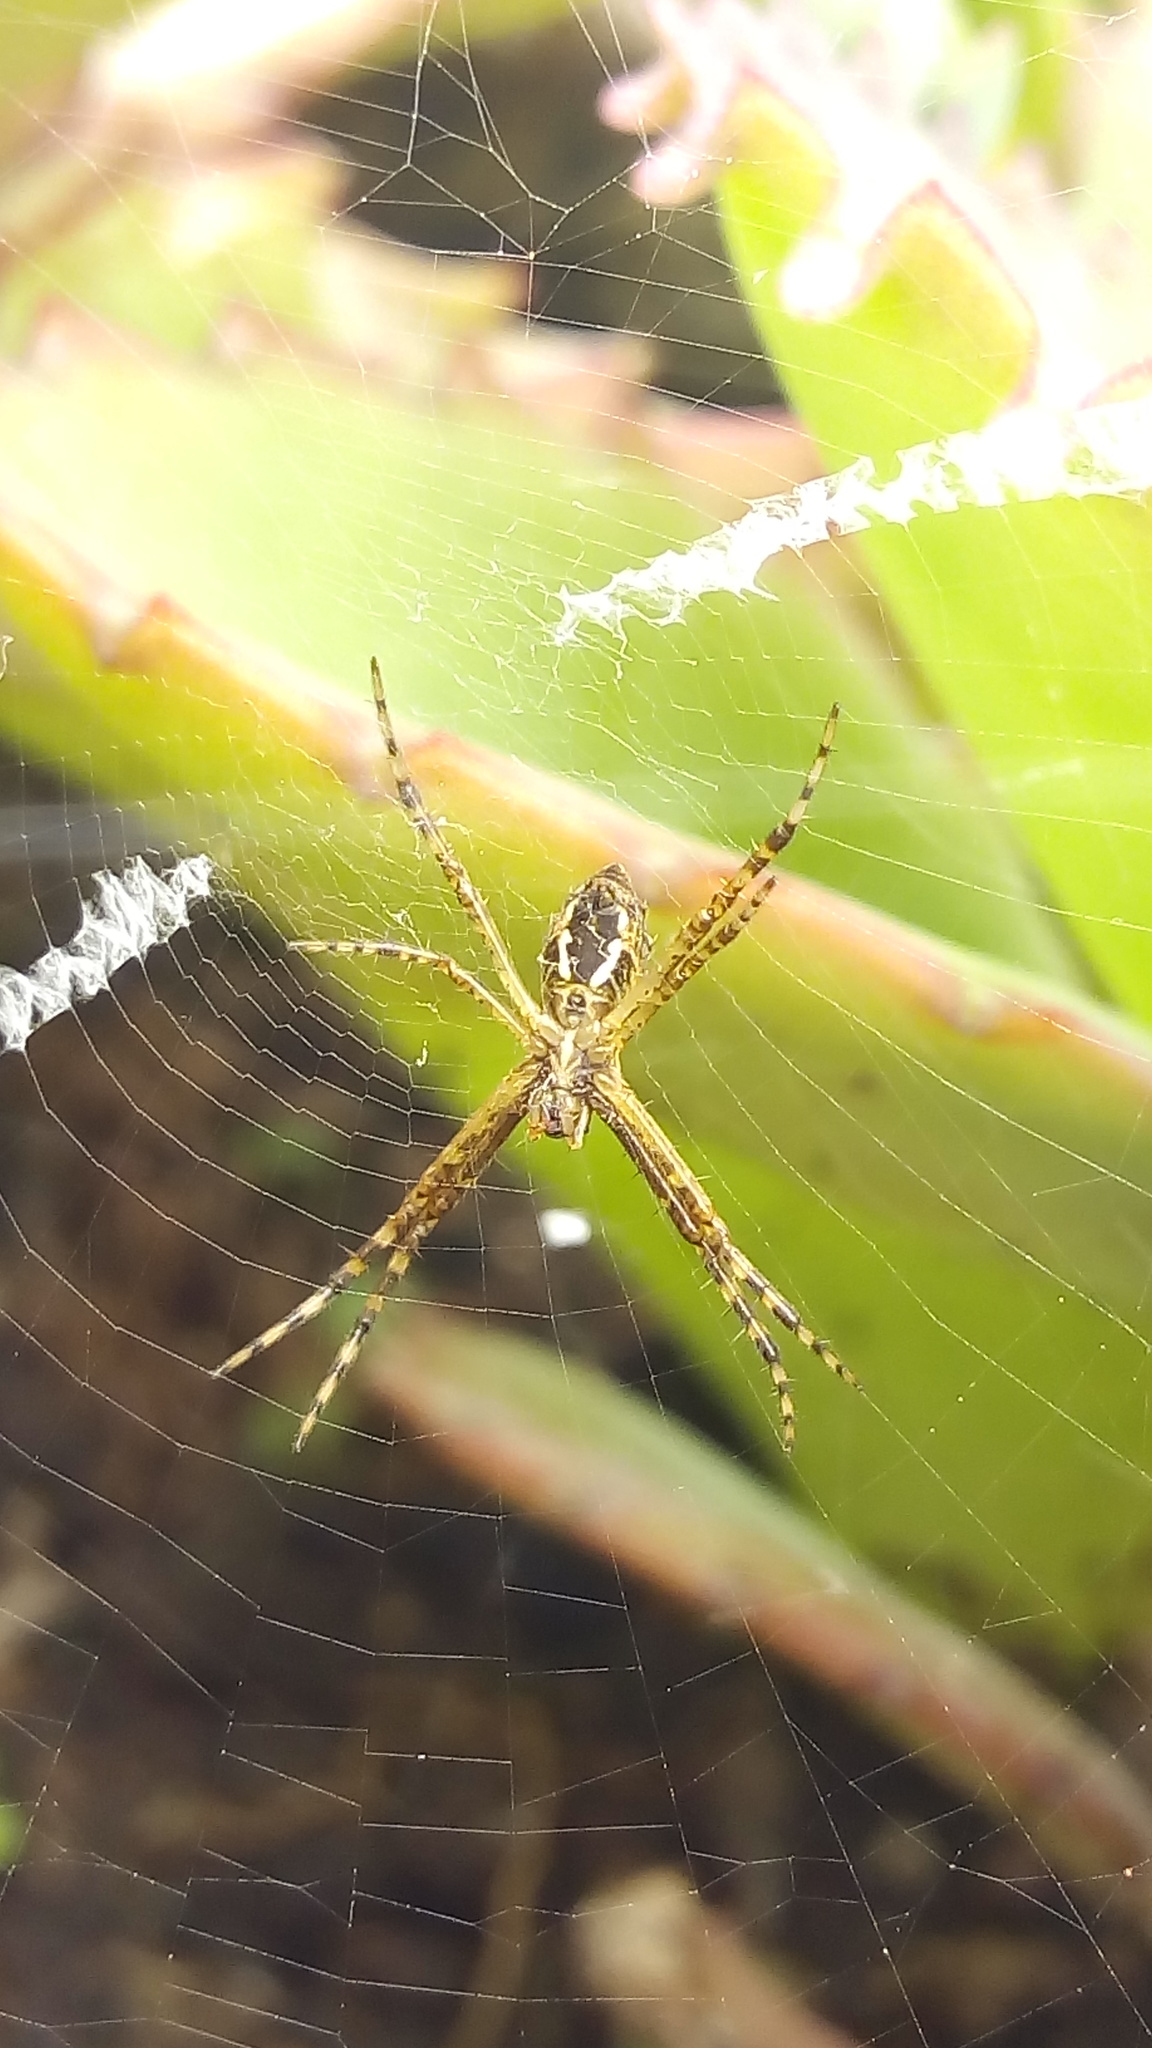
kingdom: Animalia
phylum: Arthropoda
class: Arachnida
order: Araneae
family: Araneidae
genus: Argiope
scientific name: Argiope argentata
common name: Orb weavers
